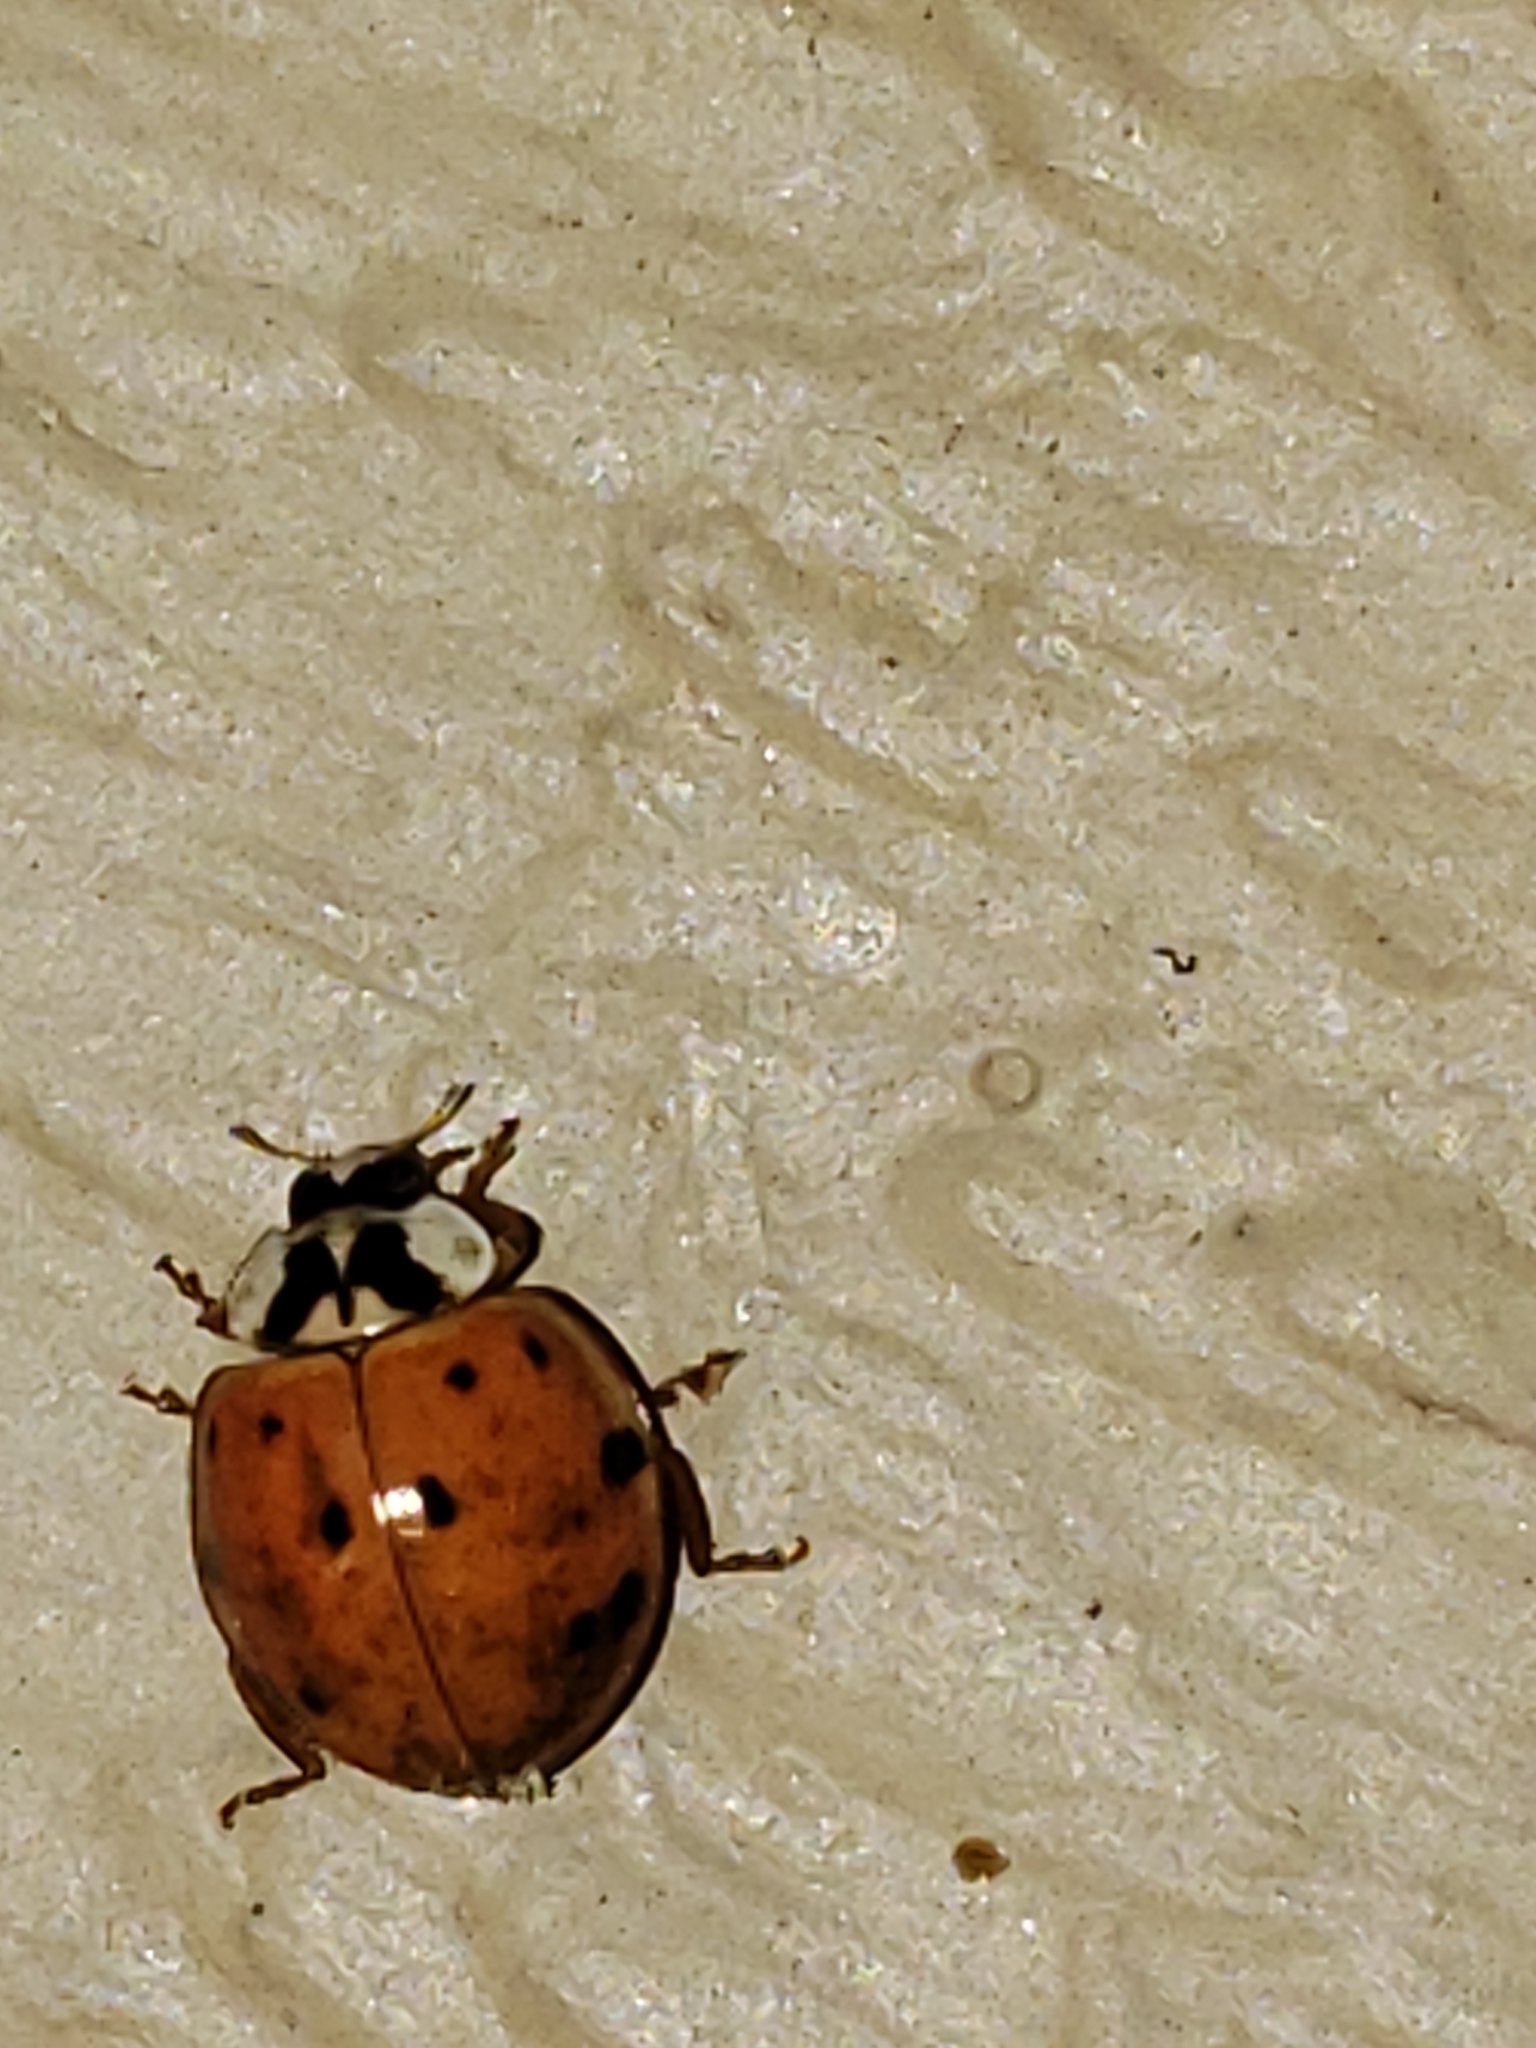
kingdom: Animalia
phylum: Arthropoda
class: Insecta
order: Coleoptera
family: Coccinellidae
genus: Harmonia
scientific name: Harmonia axyridis
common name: Harlequin ladybird
